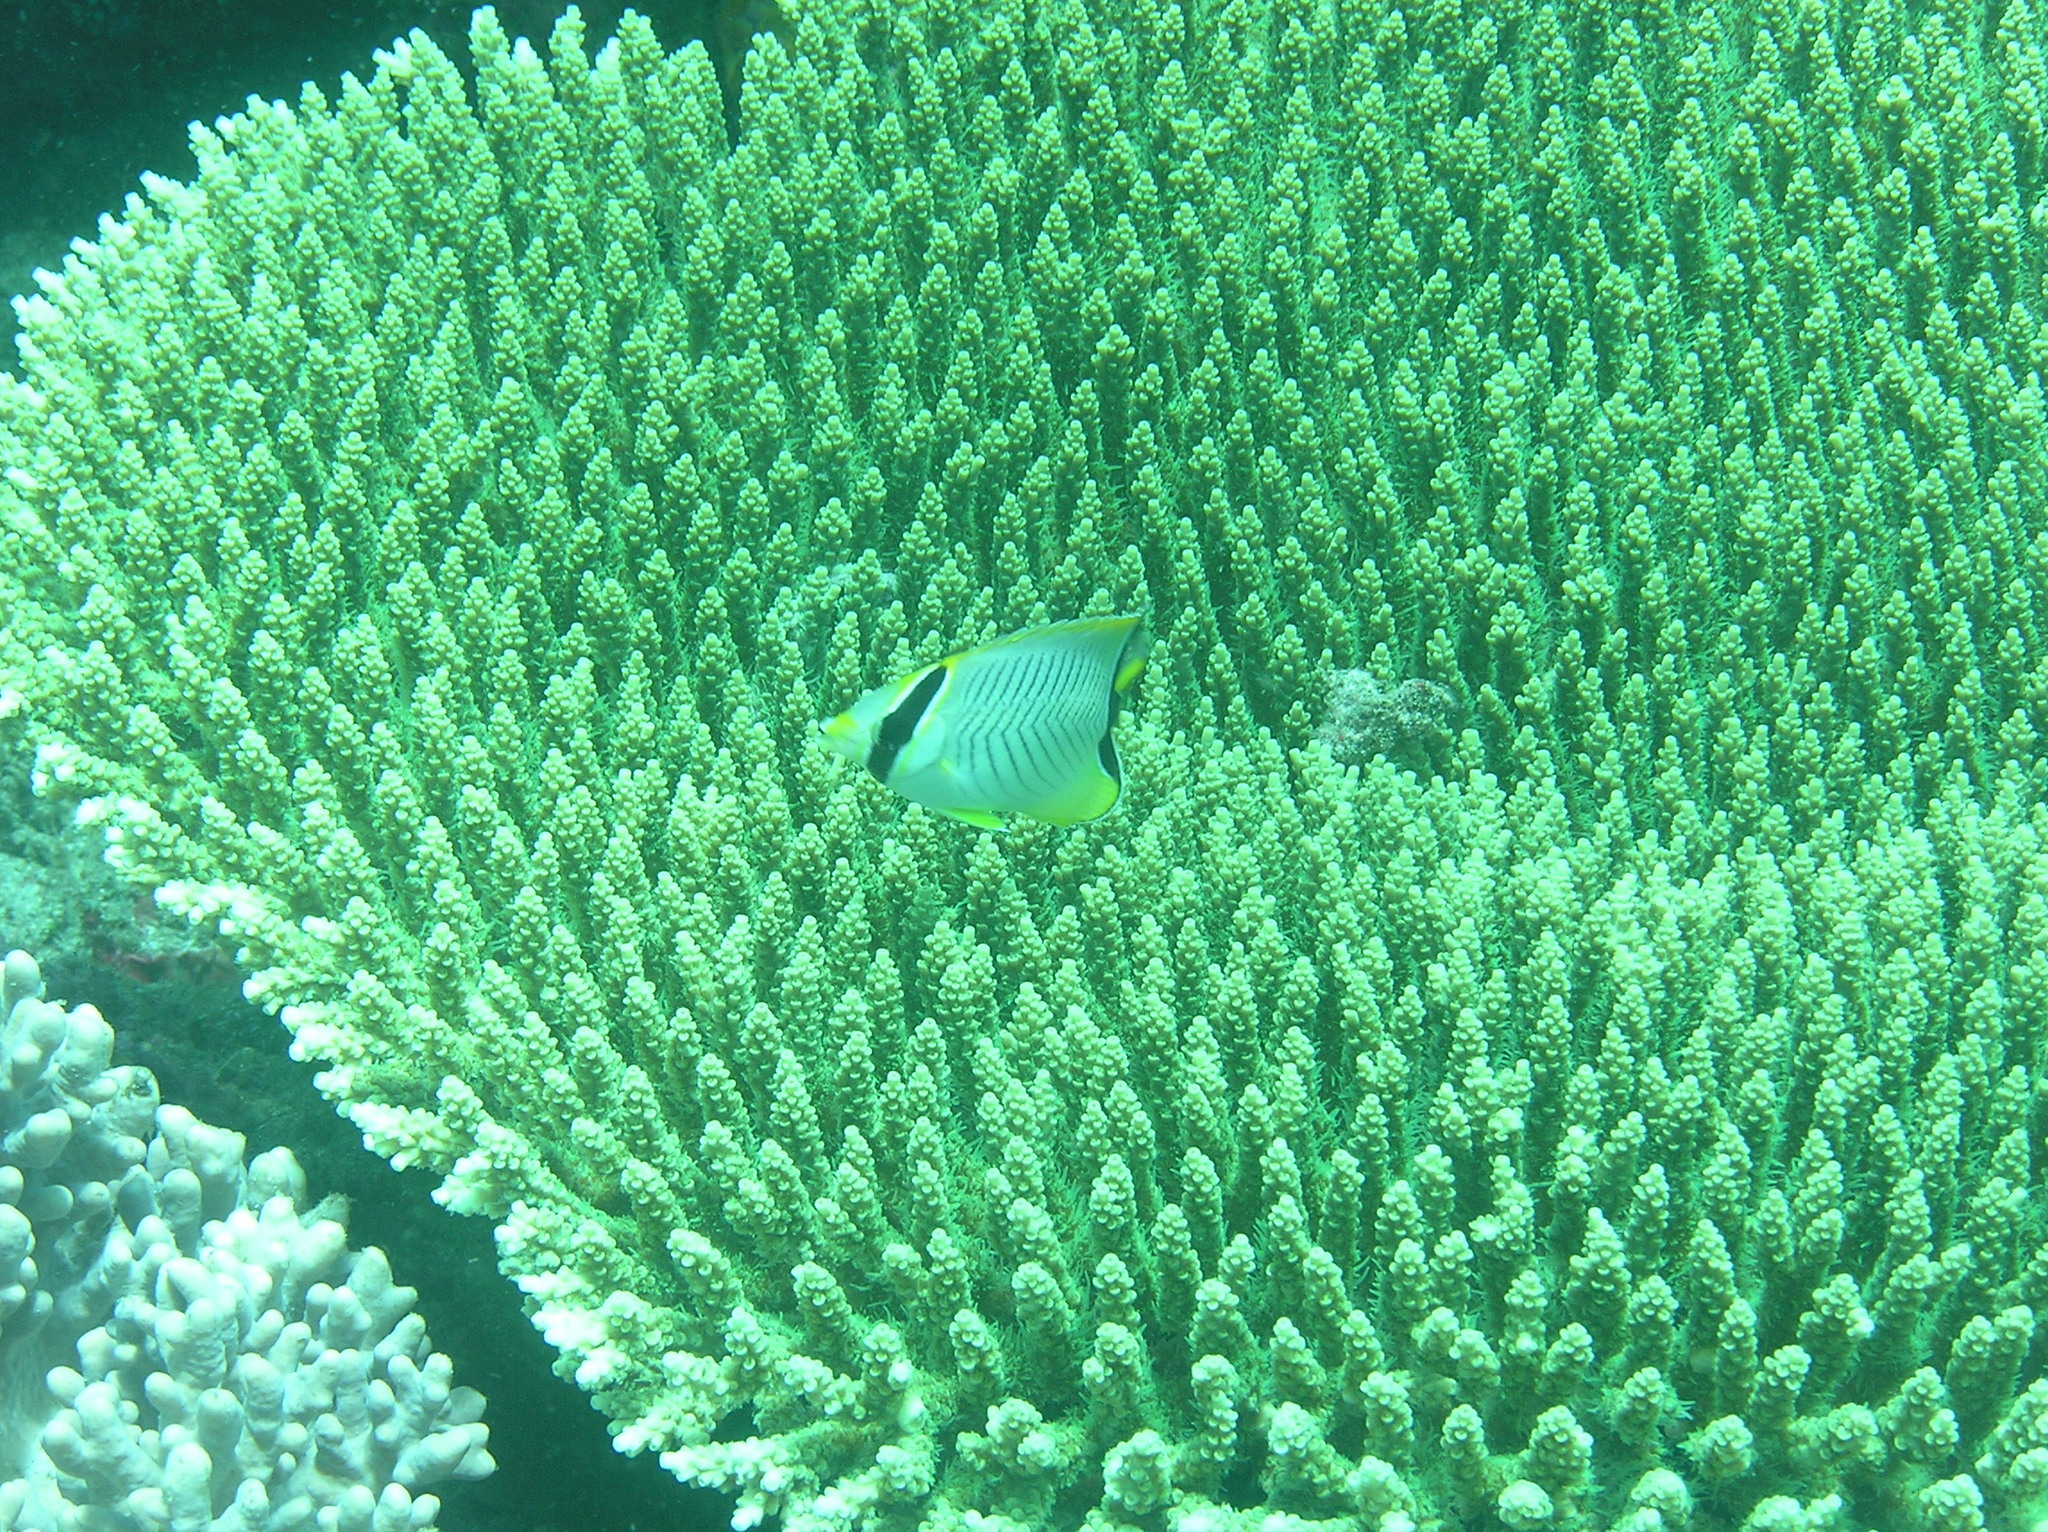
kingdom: Animalia
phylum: Chordata
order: Perciformes
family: Chaetodontidae
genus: Chaetodon
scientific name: Chaetodon trifascialis
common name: Chevroned butterflyfish
